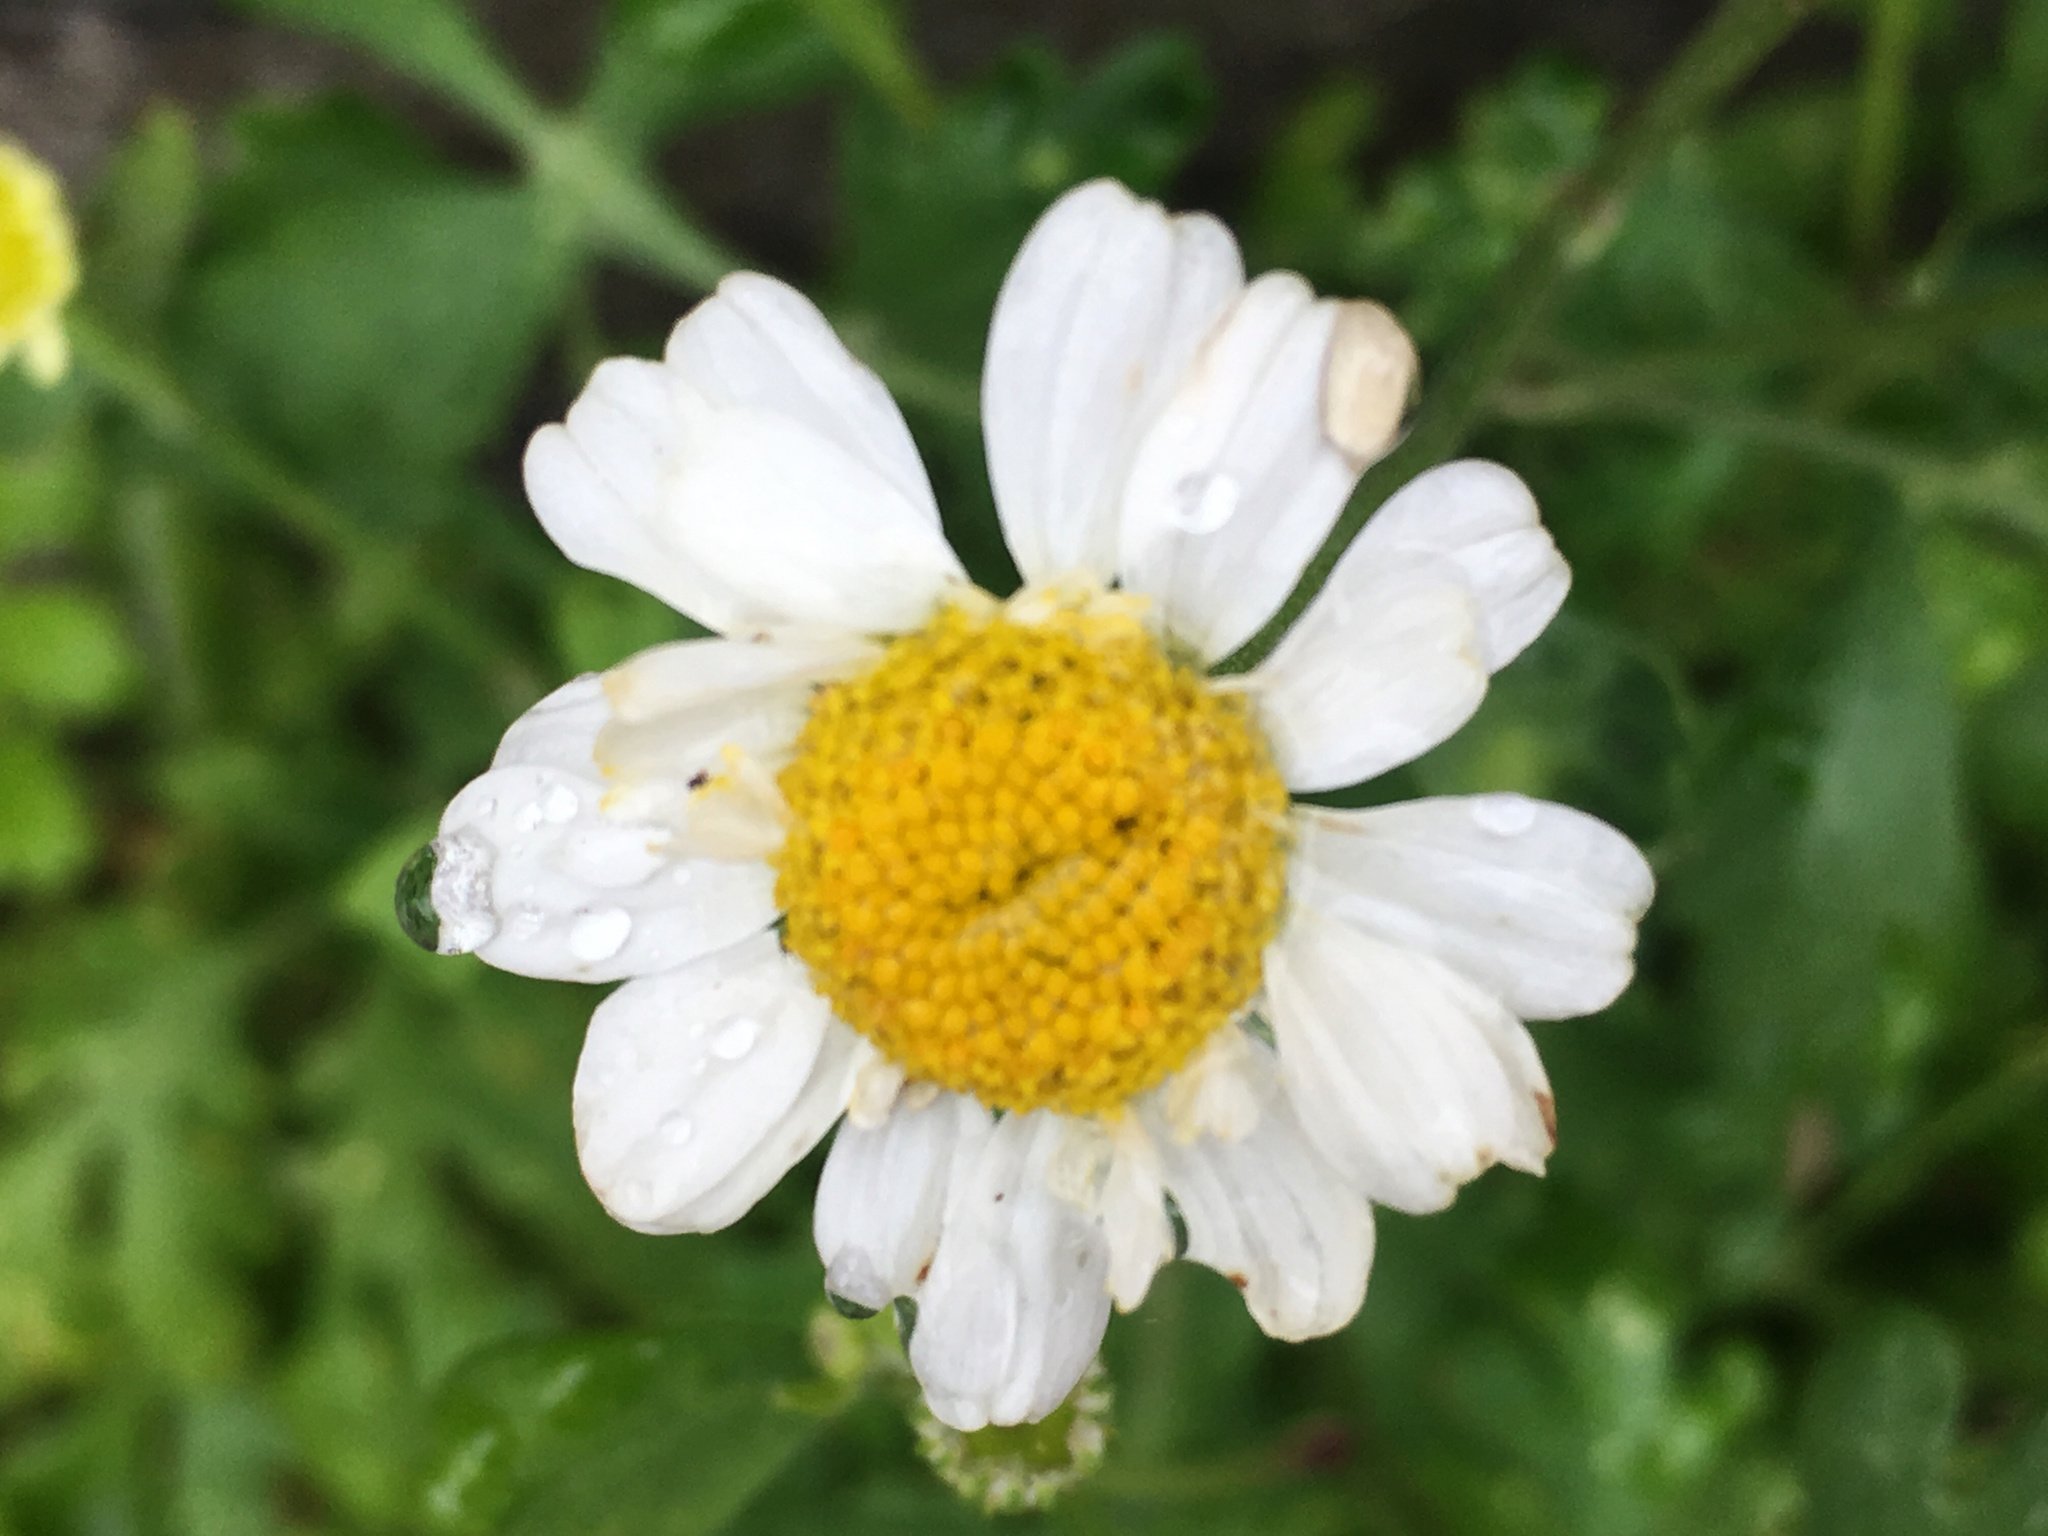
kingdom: Plantae
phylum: Tracheophyta
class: Magnoliopsida
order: Asterales
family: Asteraceae
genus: Tanacetum
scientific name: Tanacetum parthenium
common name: Feverfew
